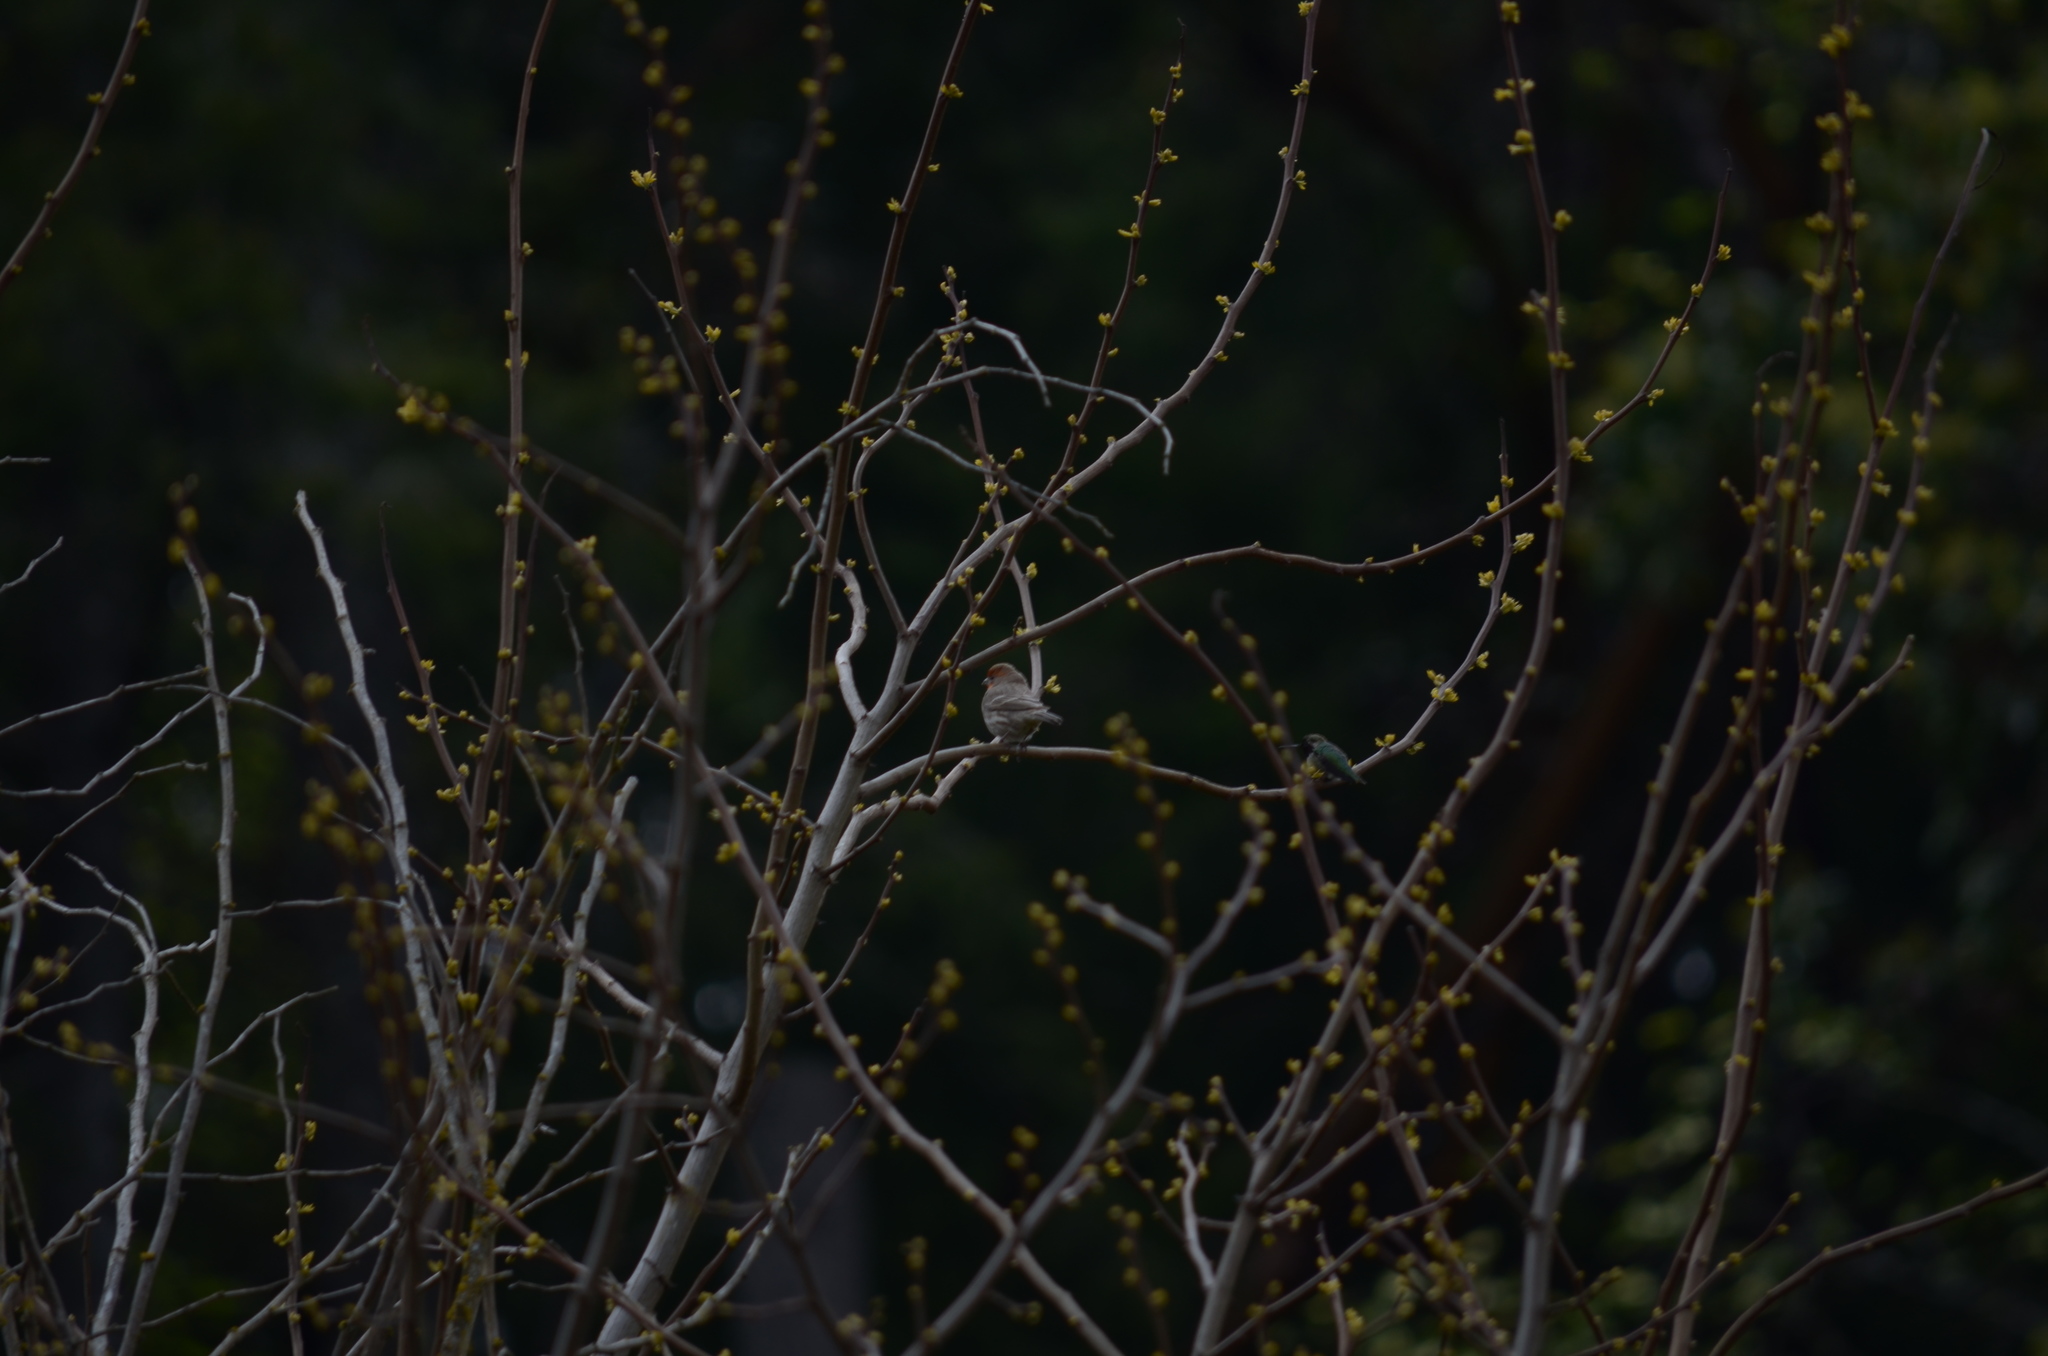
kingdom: Animalia
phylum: Chordata
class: Aves
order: Apodiformes
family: Trochilidae
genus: Calypte
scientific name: Calypte anna
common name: Anna's hummingbird
